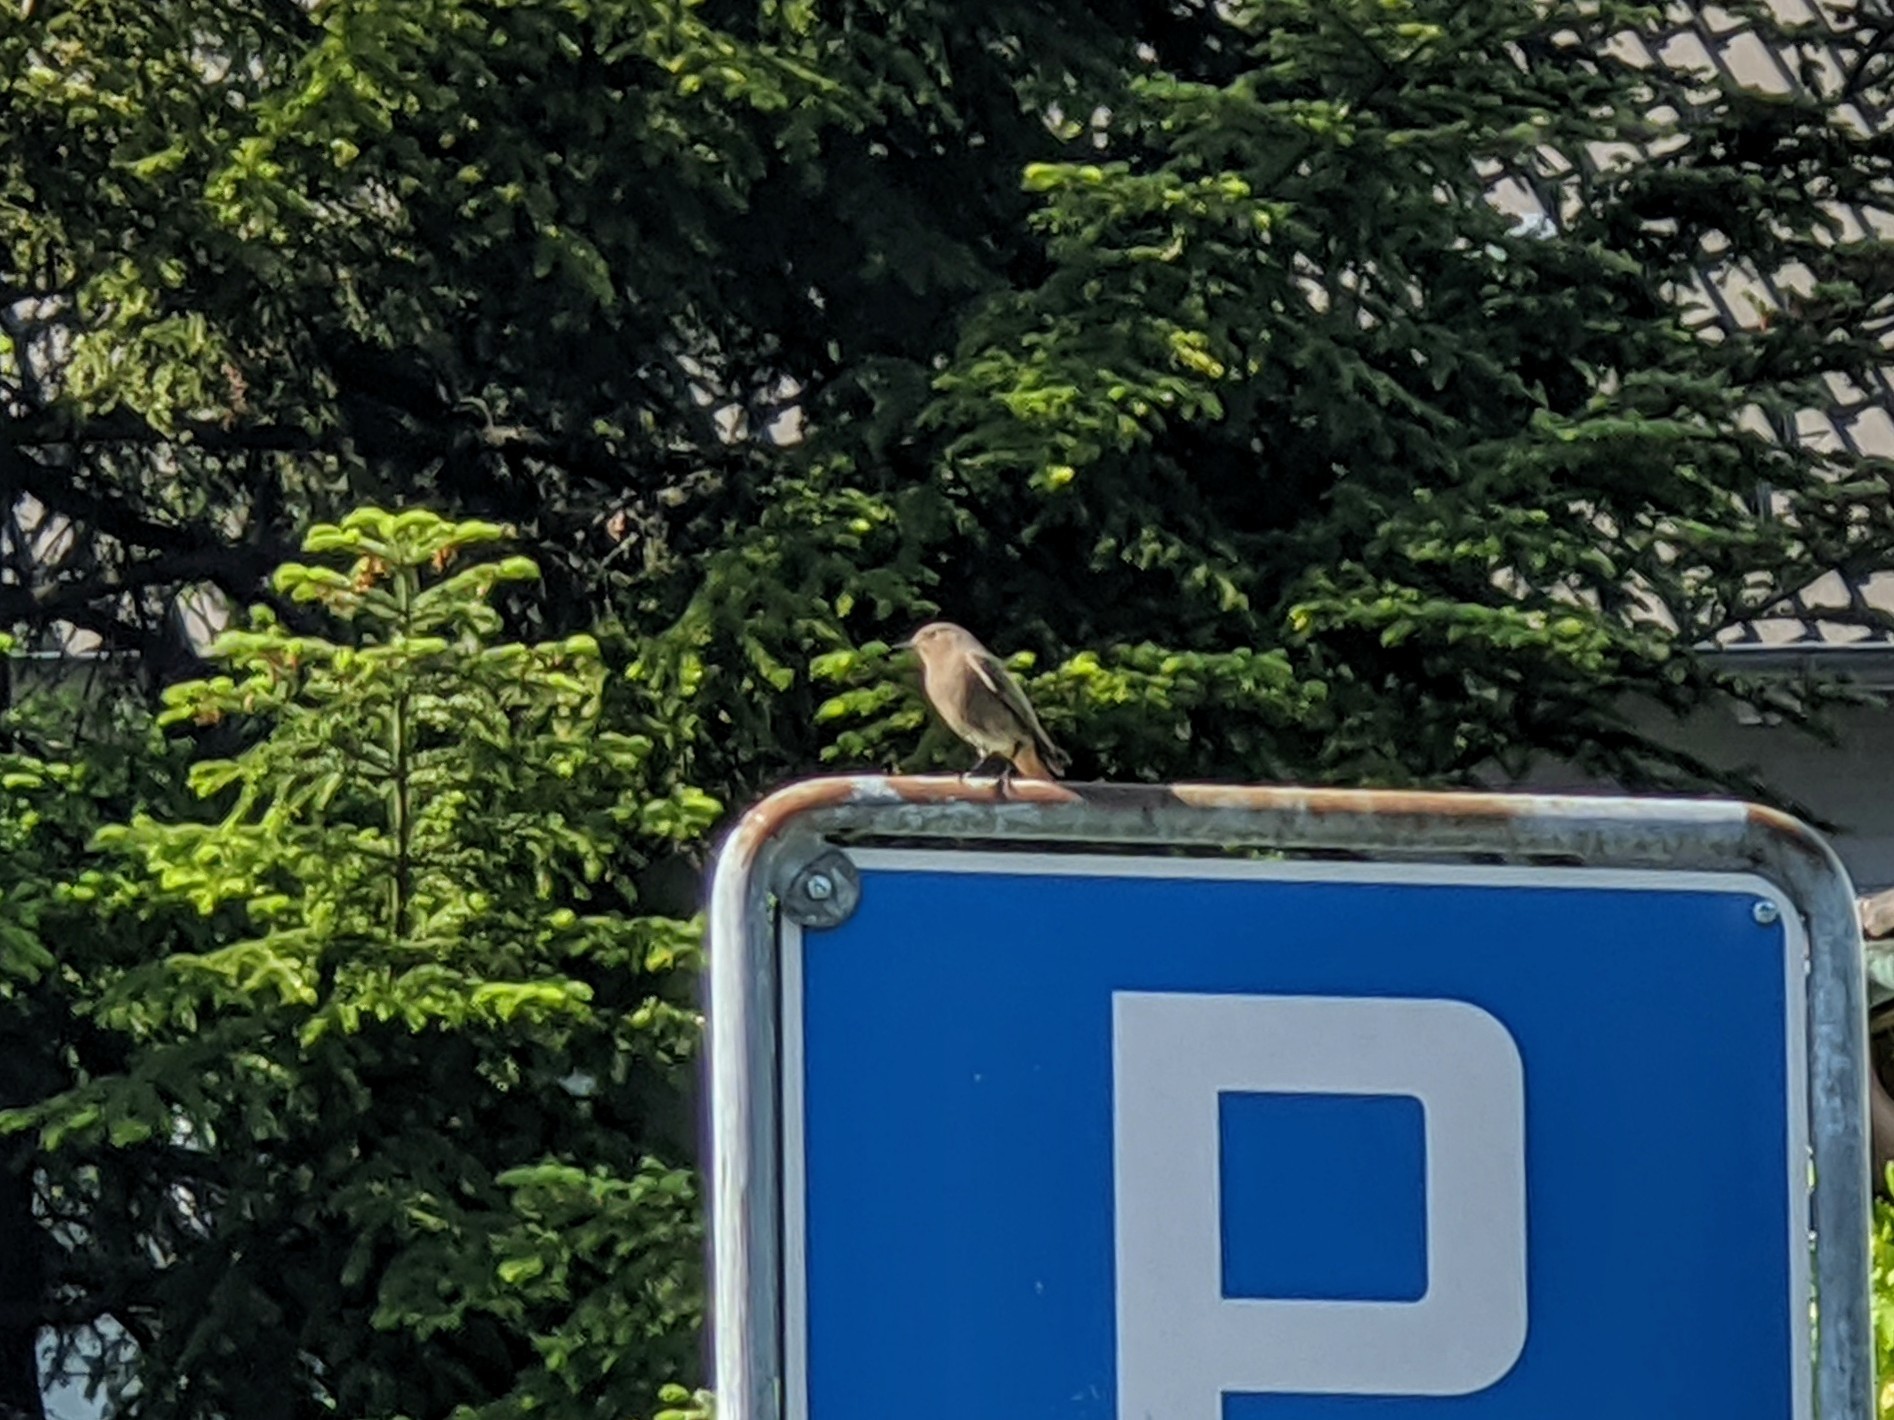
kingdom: Animalia
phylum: Chordata
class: Aves
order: Passeriformes
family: Muscicapidae
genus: Phoenicurus
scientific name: Phoenicurus ochruros
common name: Black redstart
